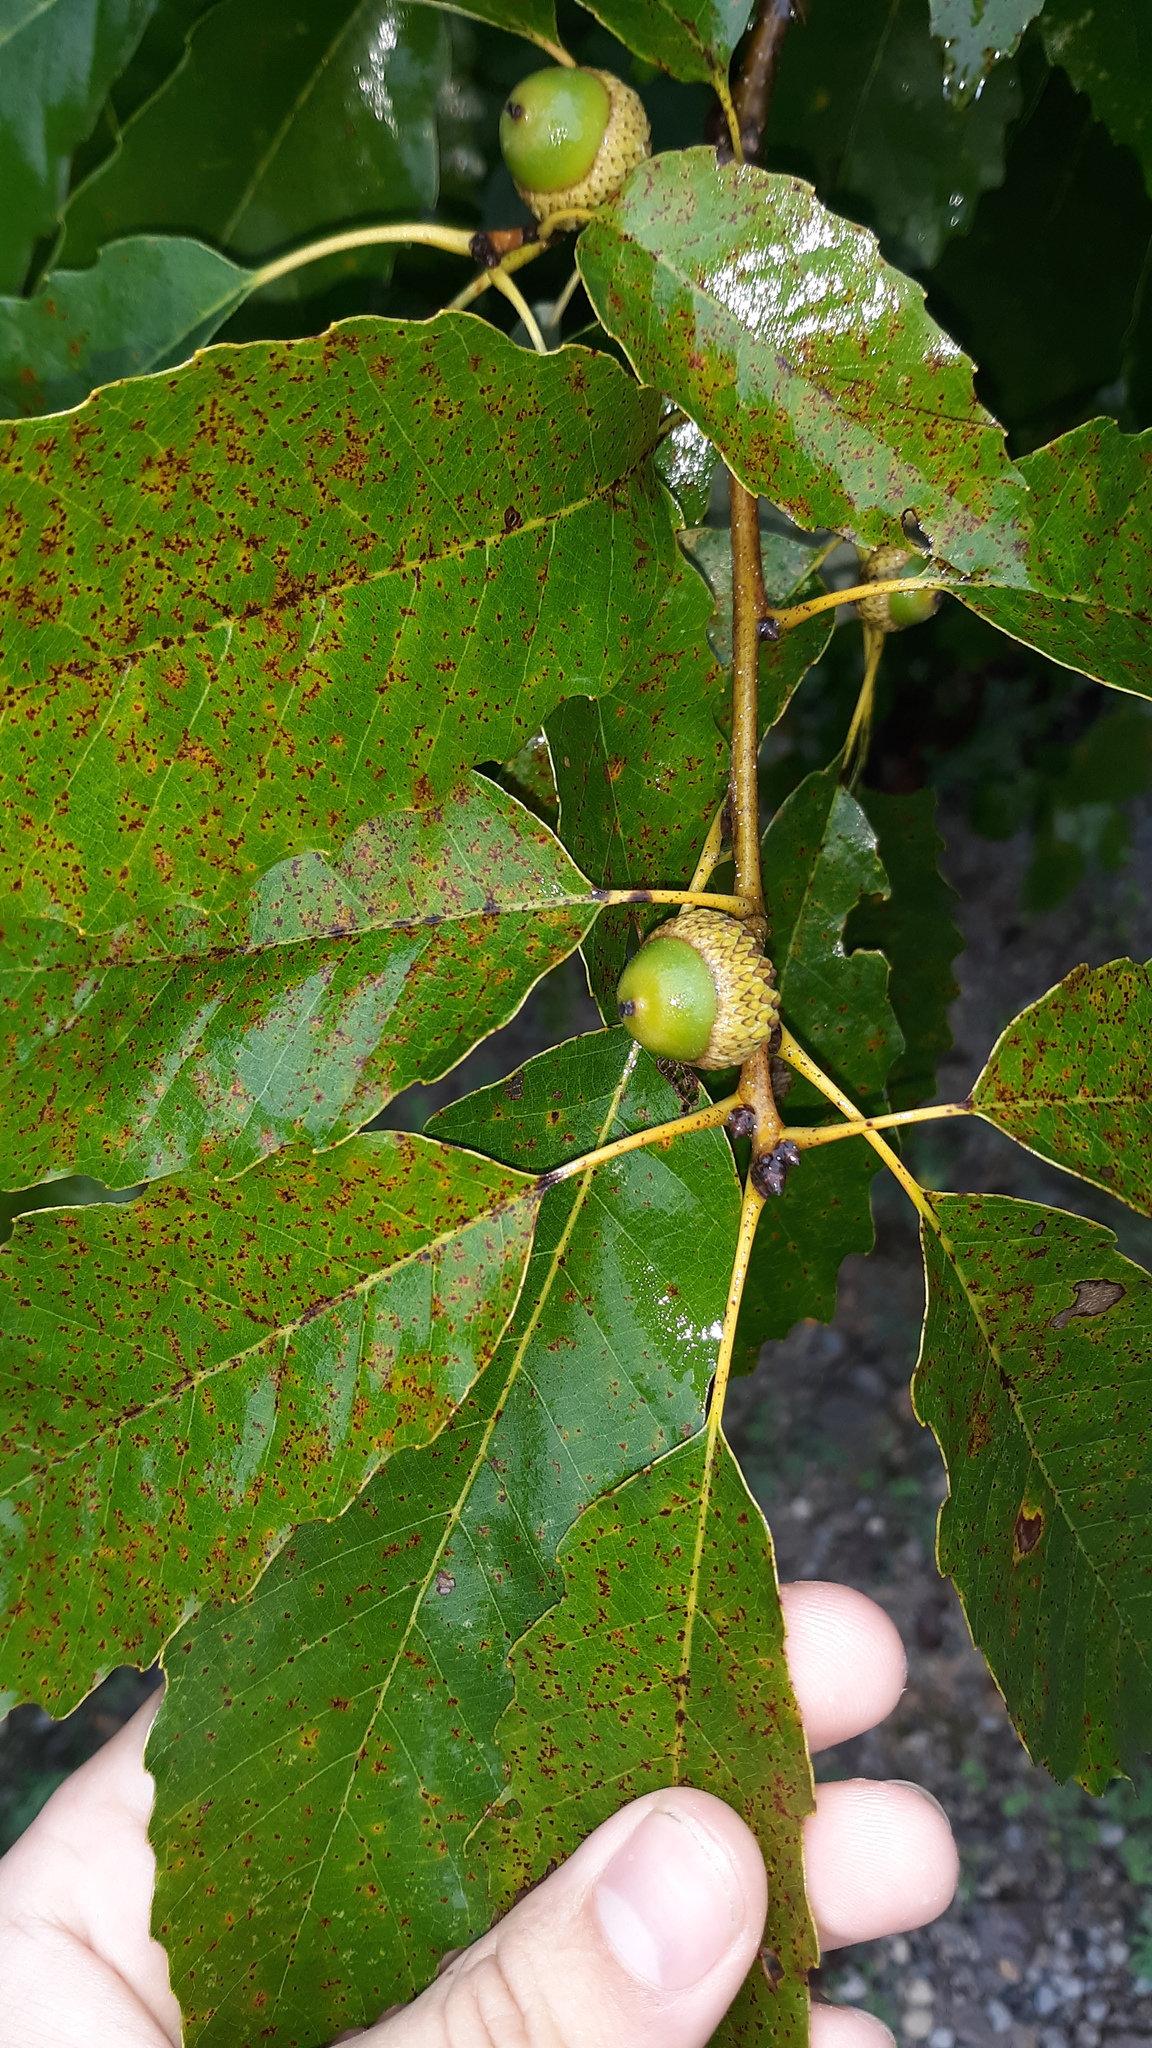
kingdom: Plantae
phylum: Tracheophyta
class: Magnoliopsida
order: Fagales
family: Fagaceae
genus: Quercus
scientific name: Quercus muehlenbergii
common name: Chinkapin oak
